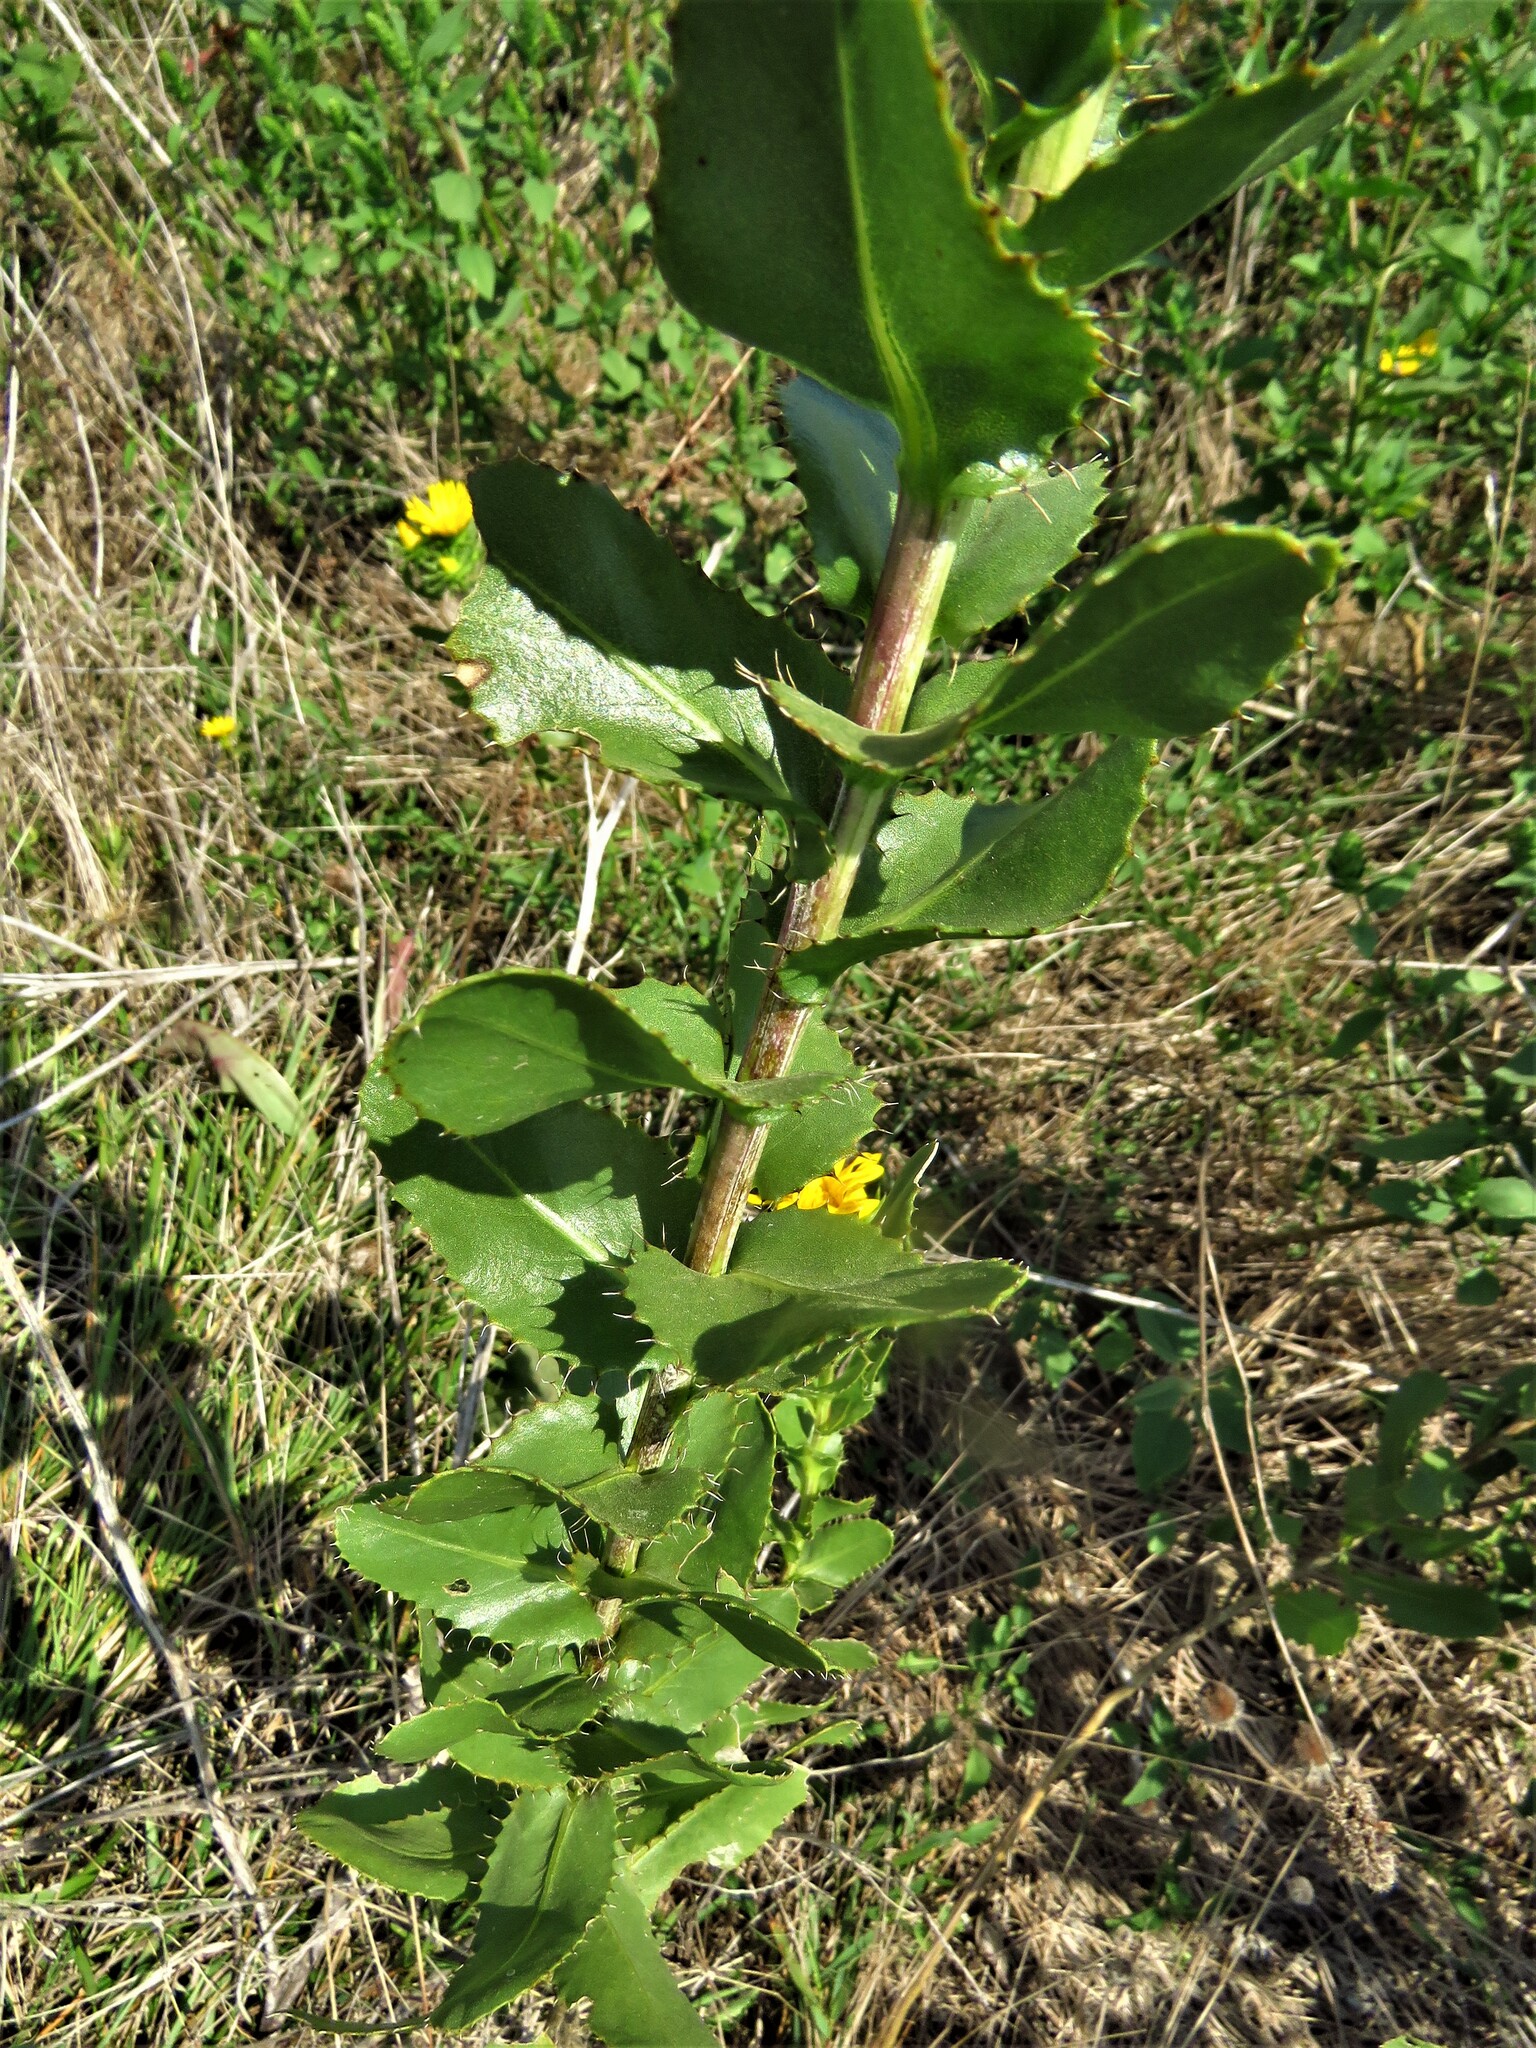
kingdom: Plantae
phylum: Tracheophyta
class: Magnoliopsida
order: Asterales
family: Asteraceae
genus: Grindelia
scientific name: Grindelia ciliata
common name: Goldenweed
